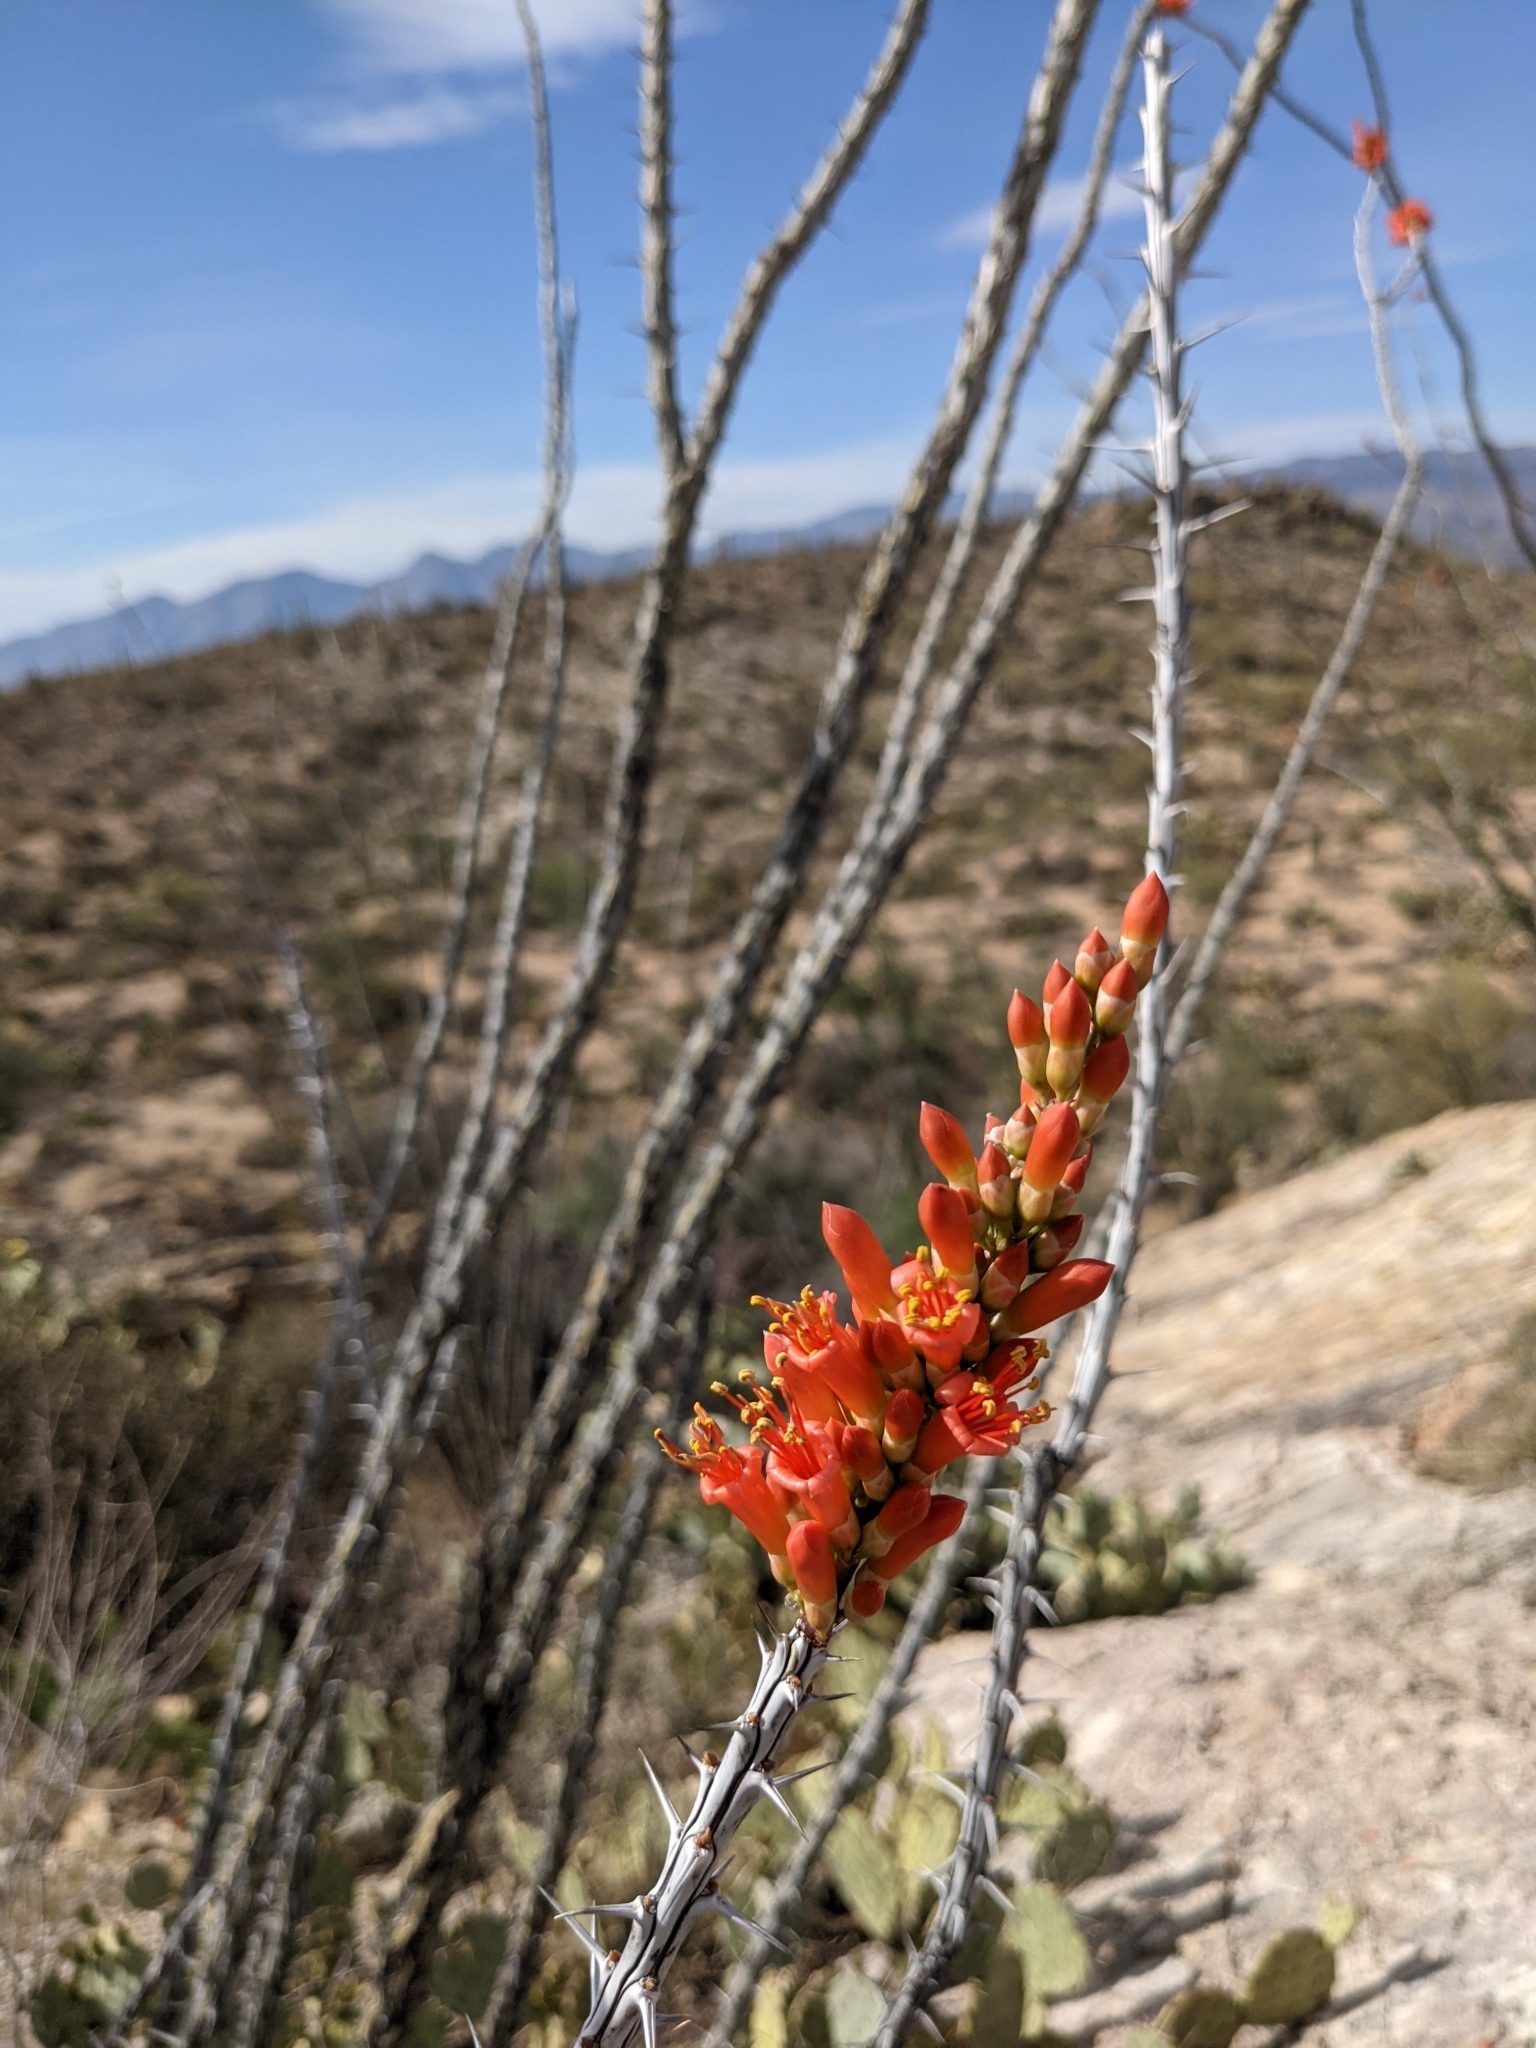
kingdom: Plantae
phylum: Tracheophyta
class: Magnoliopsida
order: Ericales
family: Fouquieriaceae
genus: Fouquieria
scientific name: Fouquieria splendens
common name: Vine-cactus
